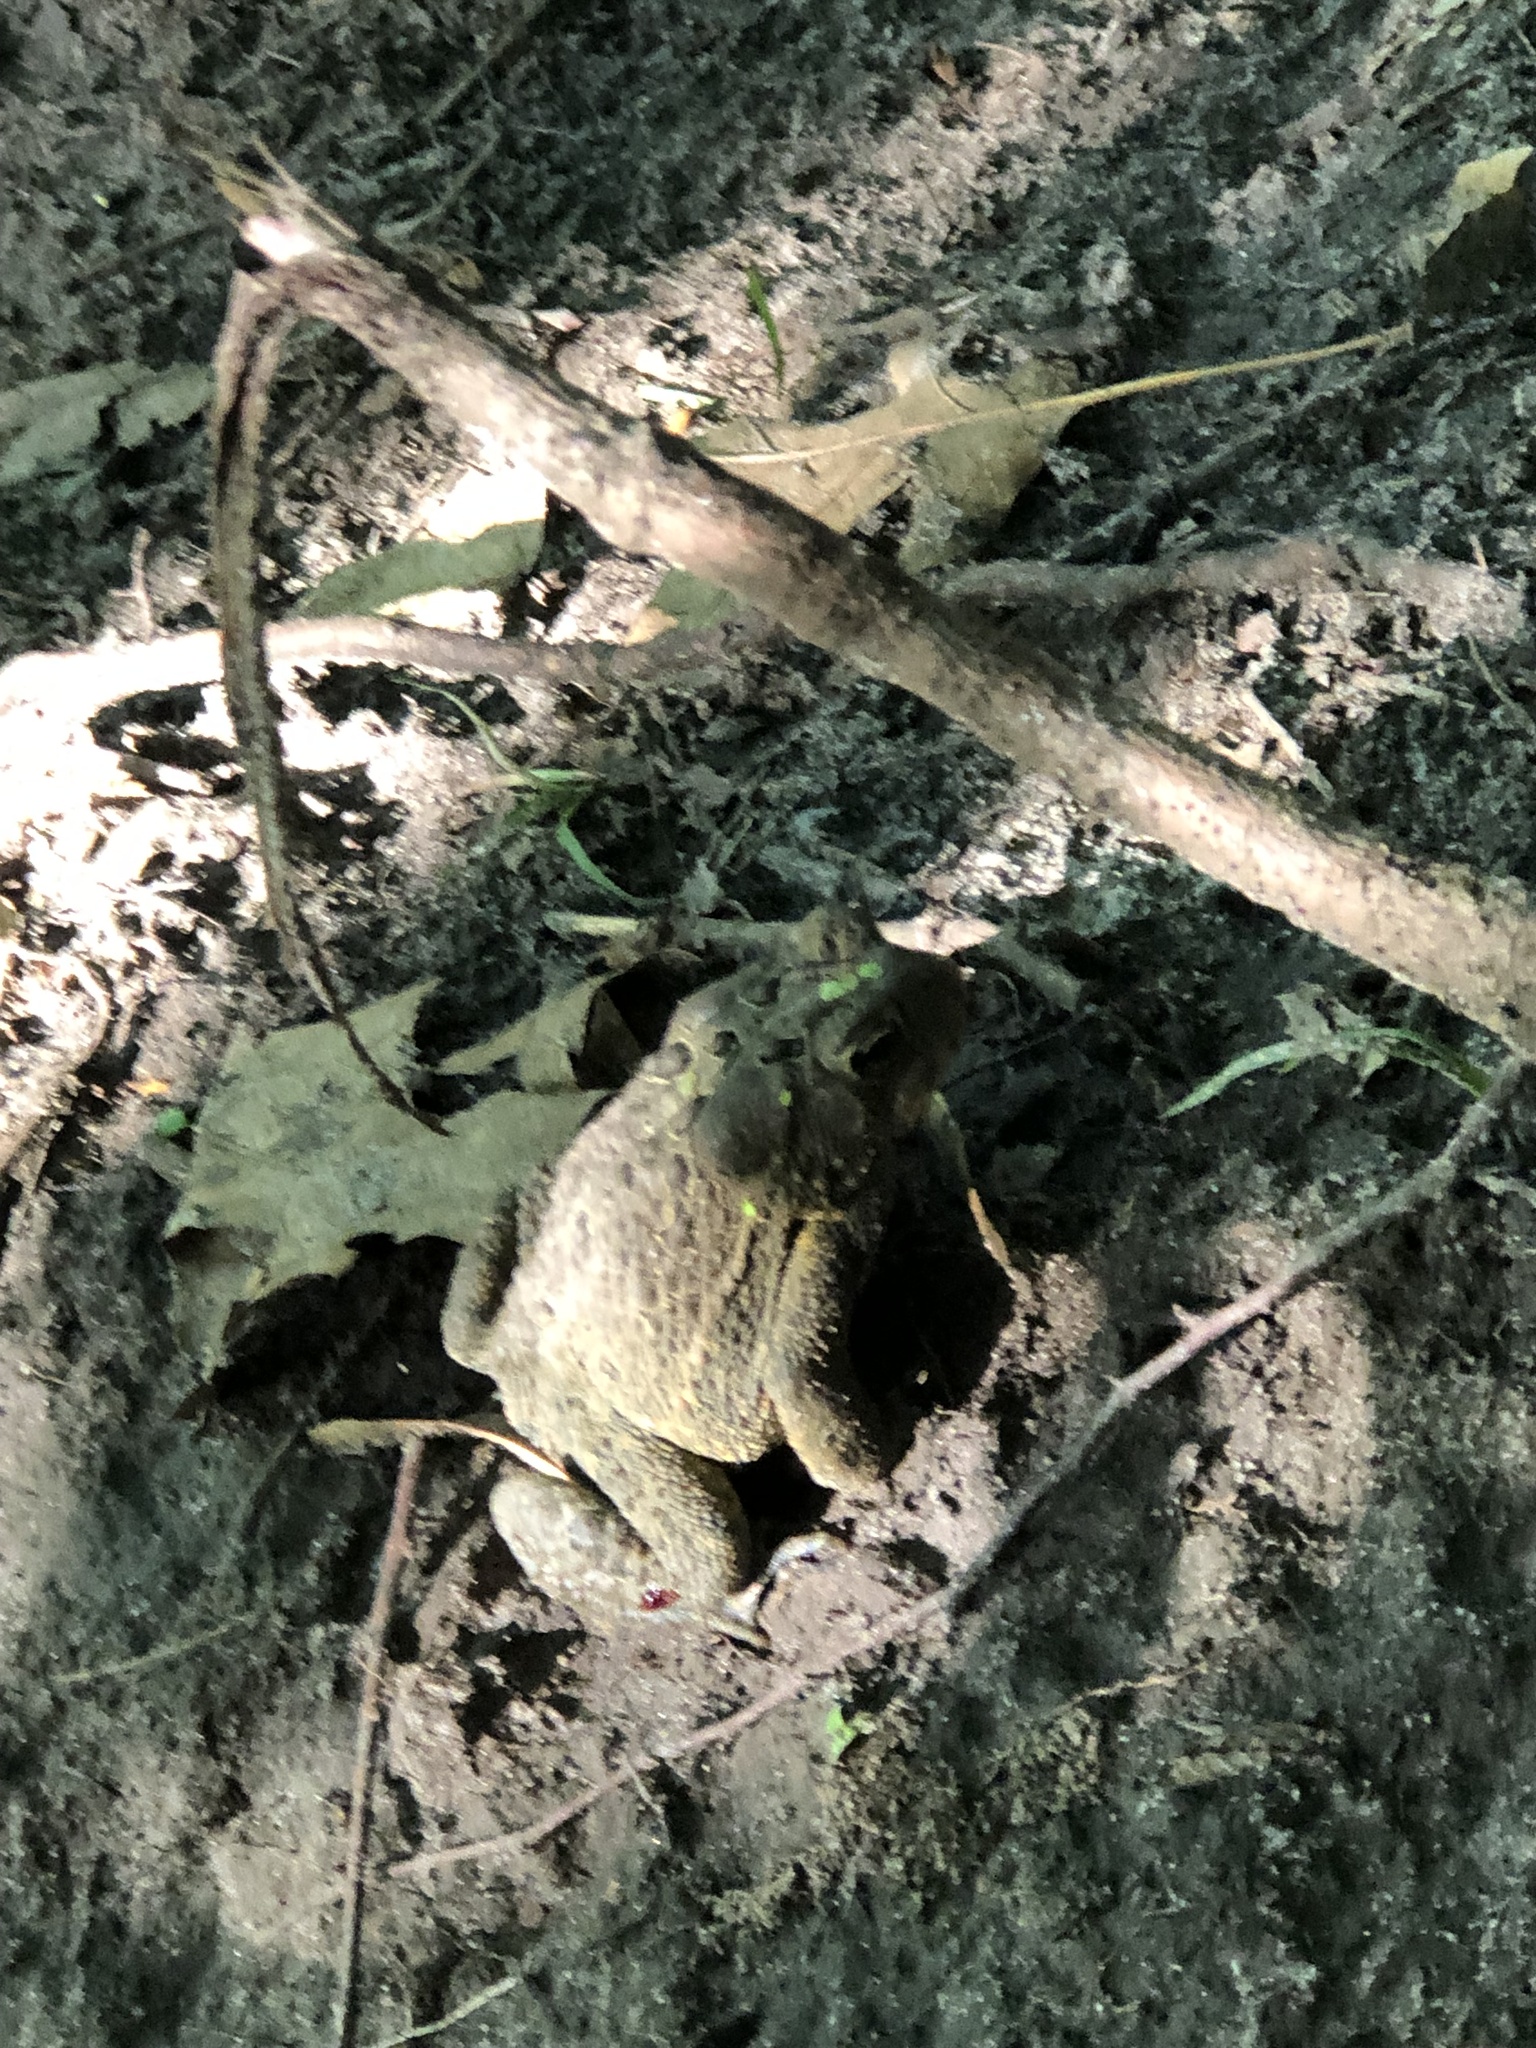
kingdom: Animalia
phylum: Chordata
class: Amphibia
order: Anura
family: Bufonidae
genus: Anaxyrus
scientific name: Anaxyrus americanus
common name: American toad
